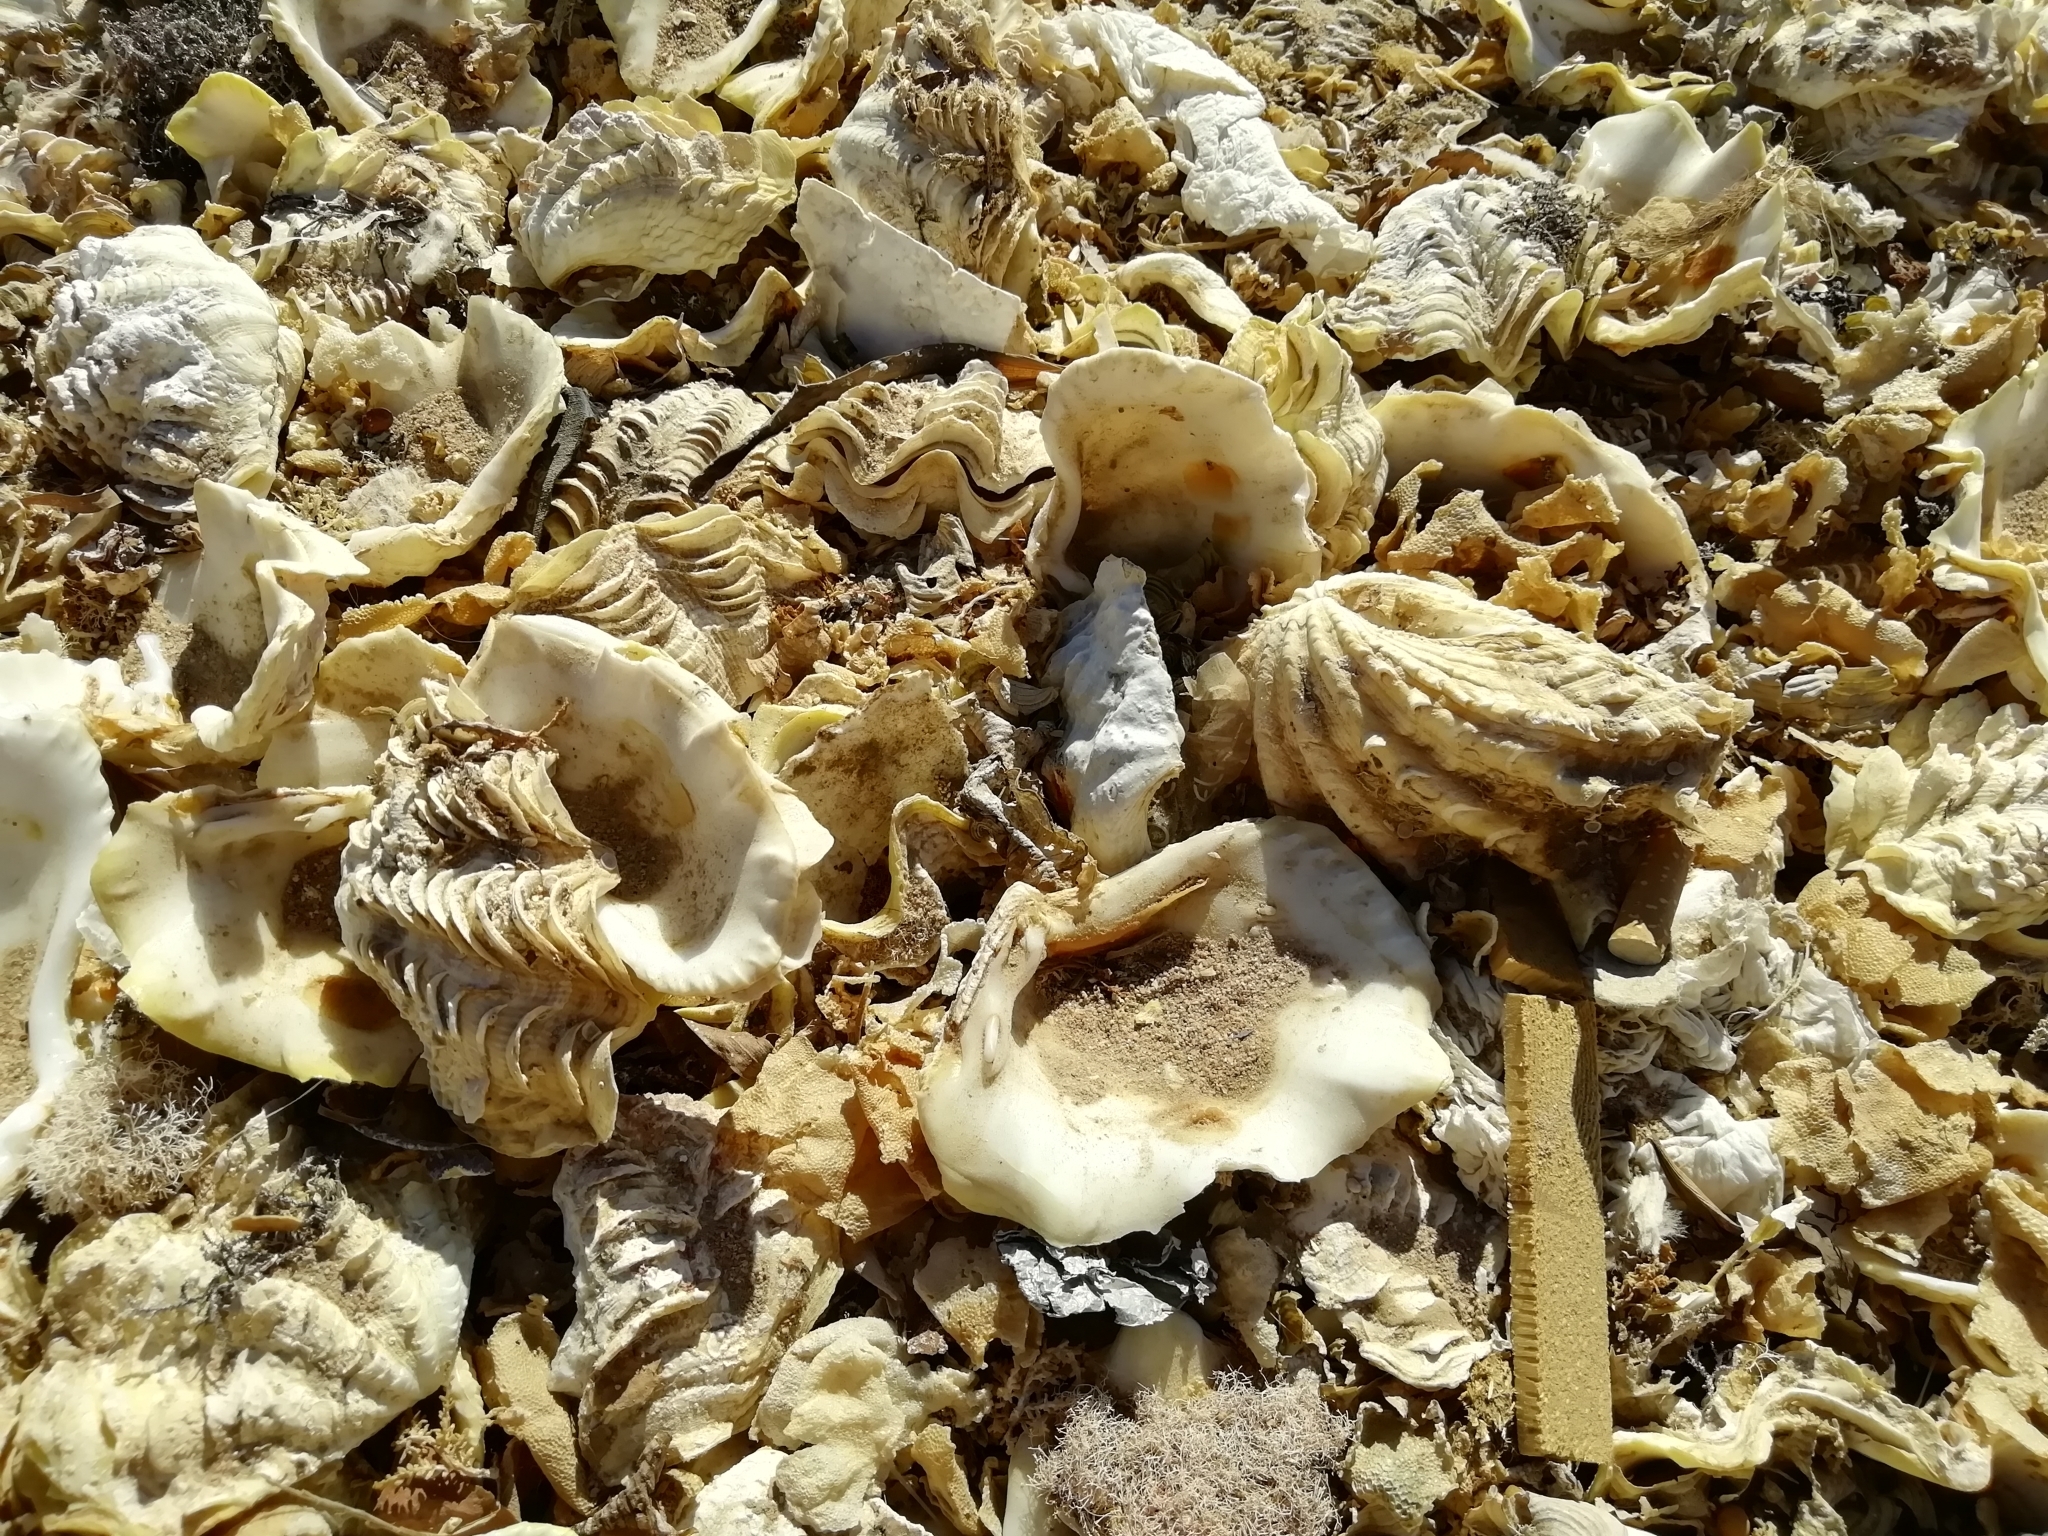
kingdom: Animalia
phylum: Mollusca
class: Bivalvia
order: Cardiida
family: Cardiidae
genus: Tridacna
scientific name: Tridacna maxima
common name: Small giant clam
